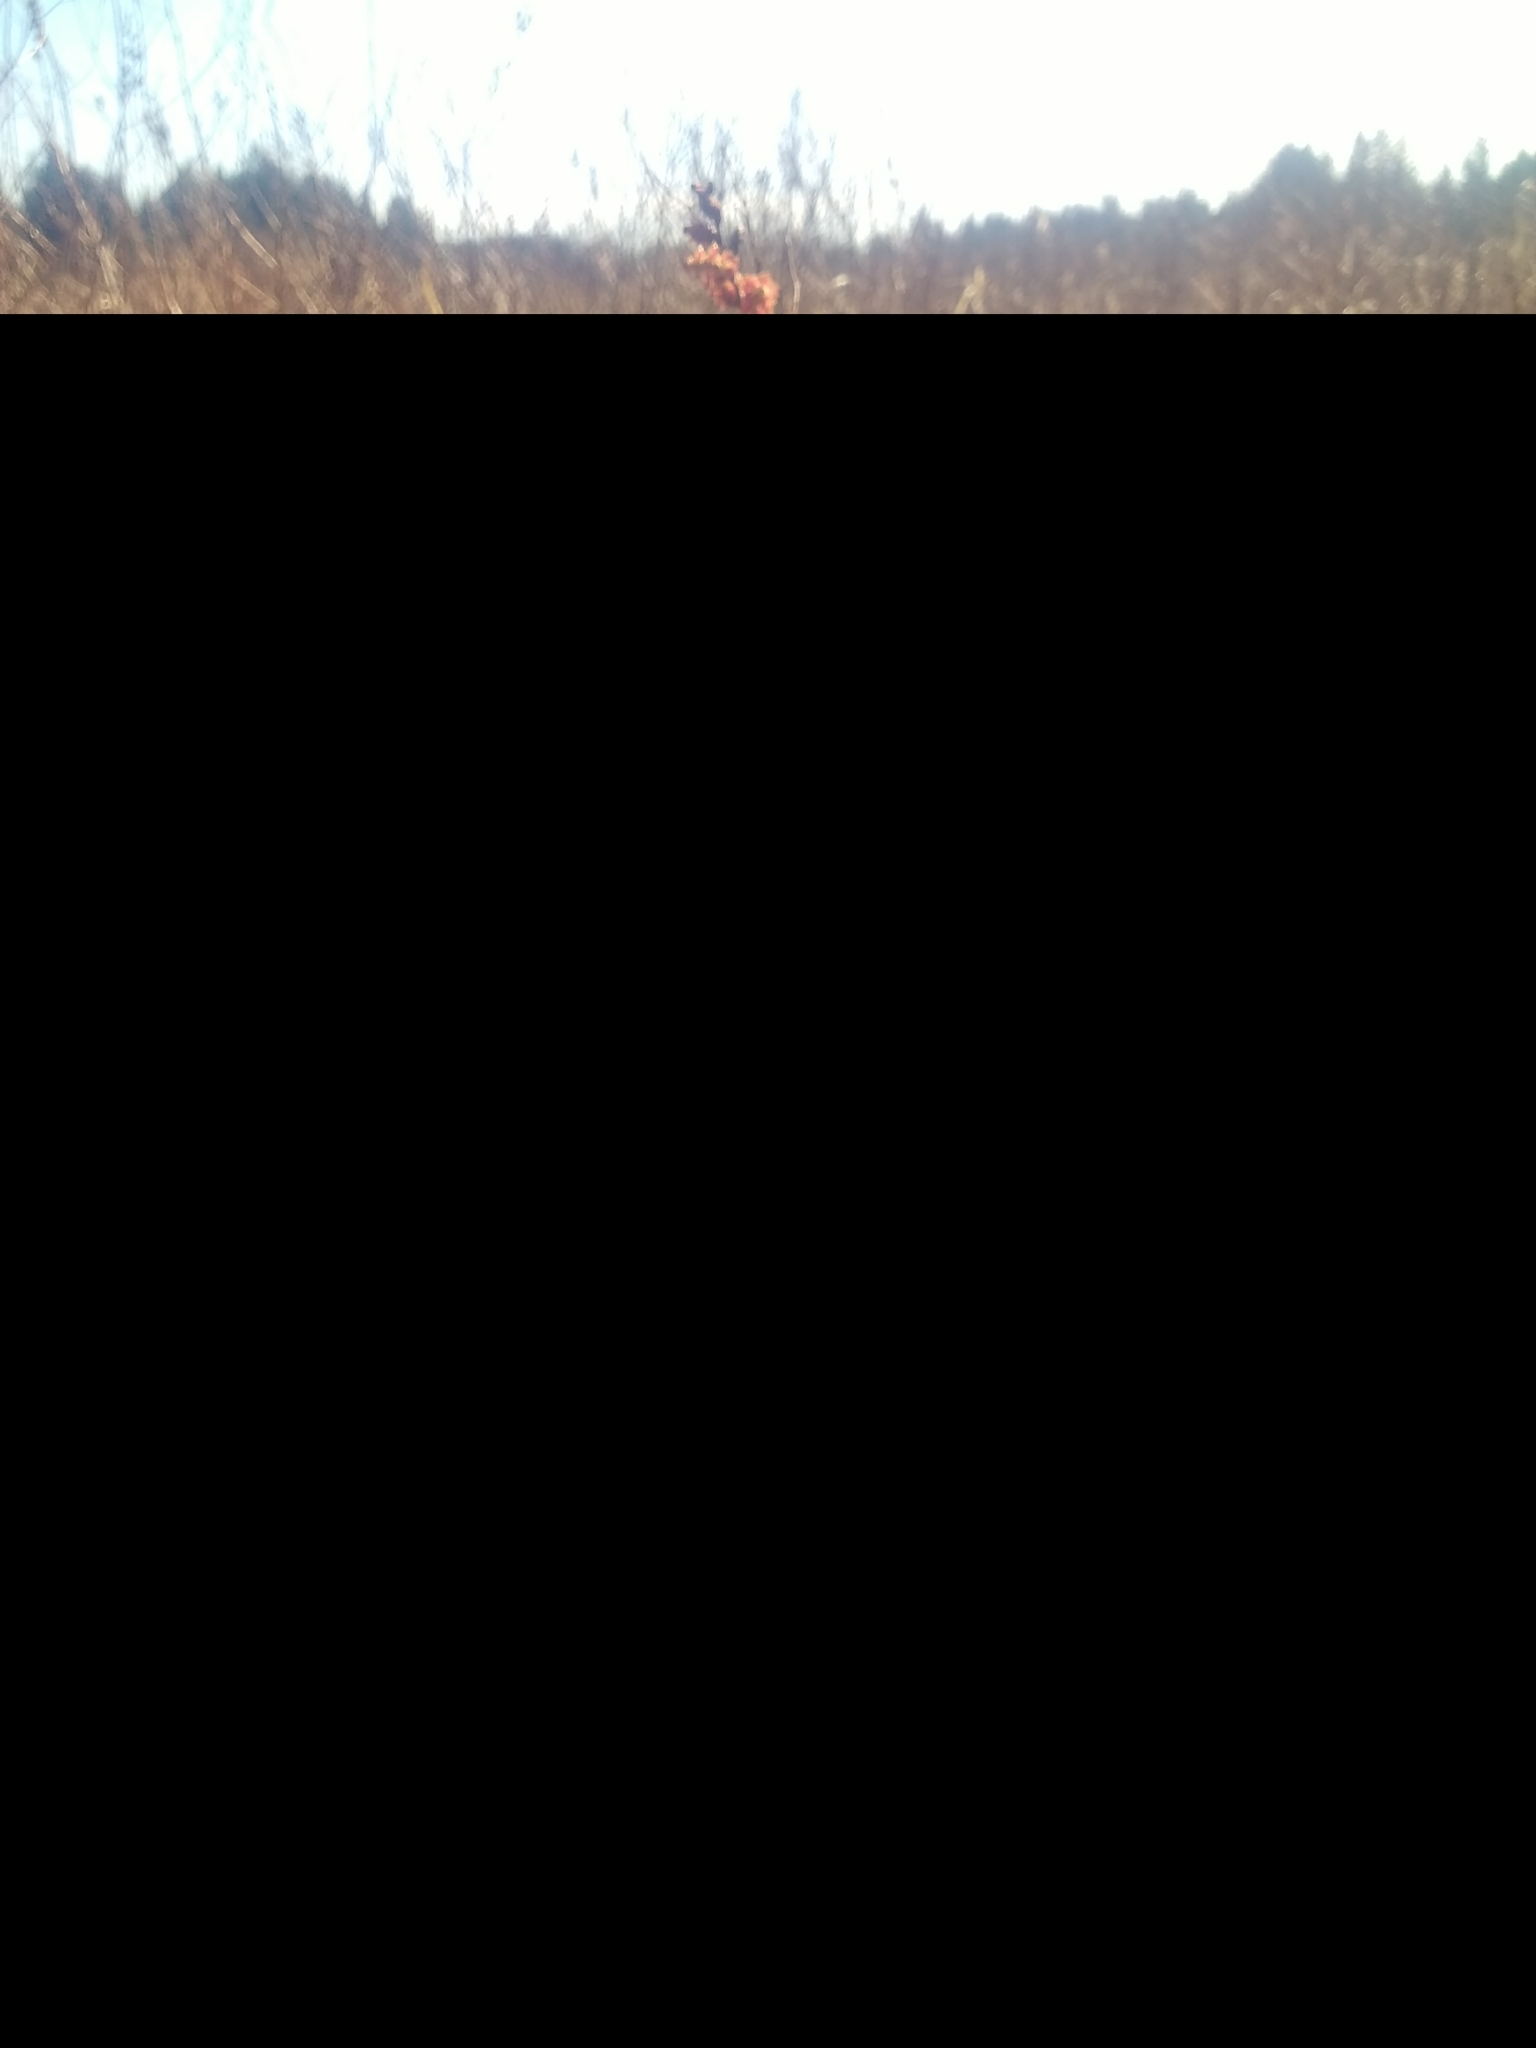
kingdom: Plantae
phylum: Tracheophyta
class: Magnoliopsida
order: Fagales
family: Myricaceae
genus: Myrica
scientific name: Myrica gale
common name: Sweet gale
